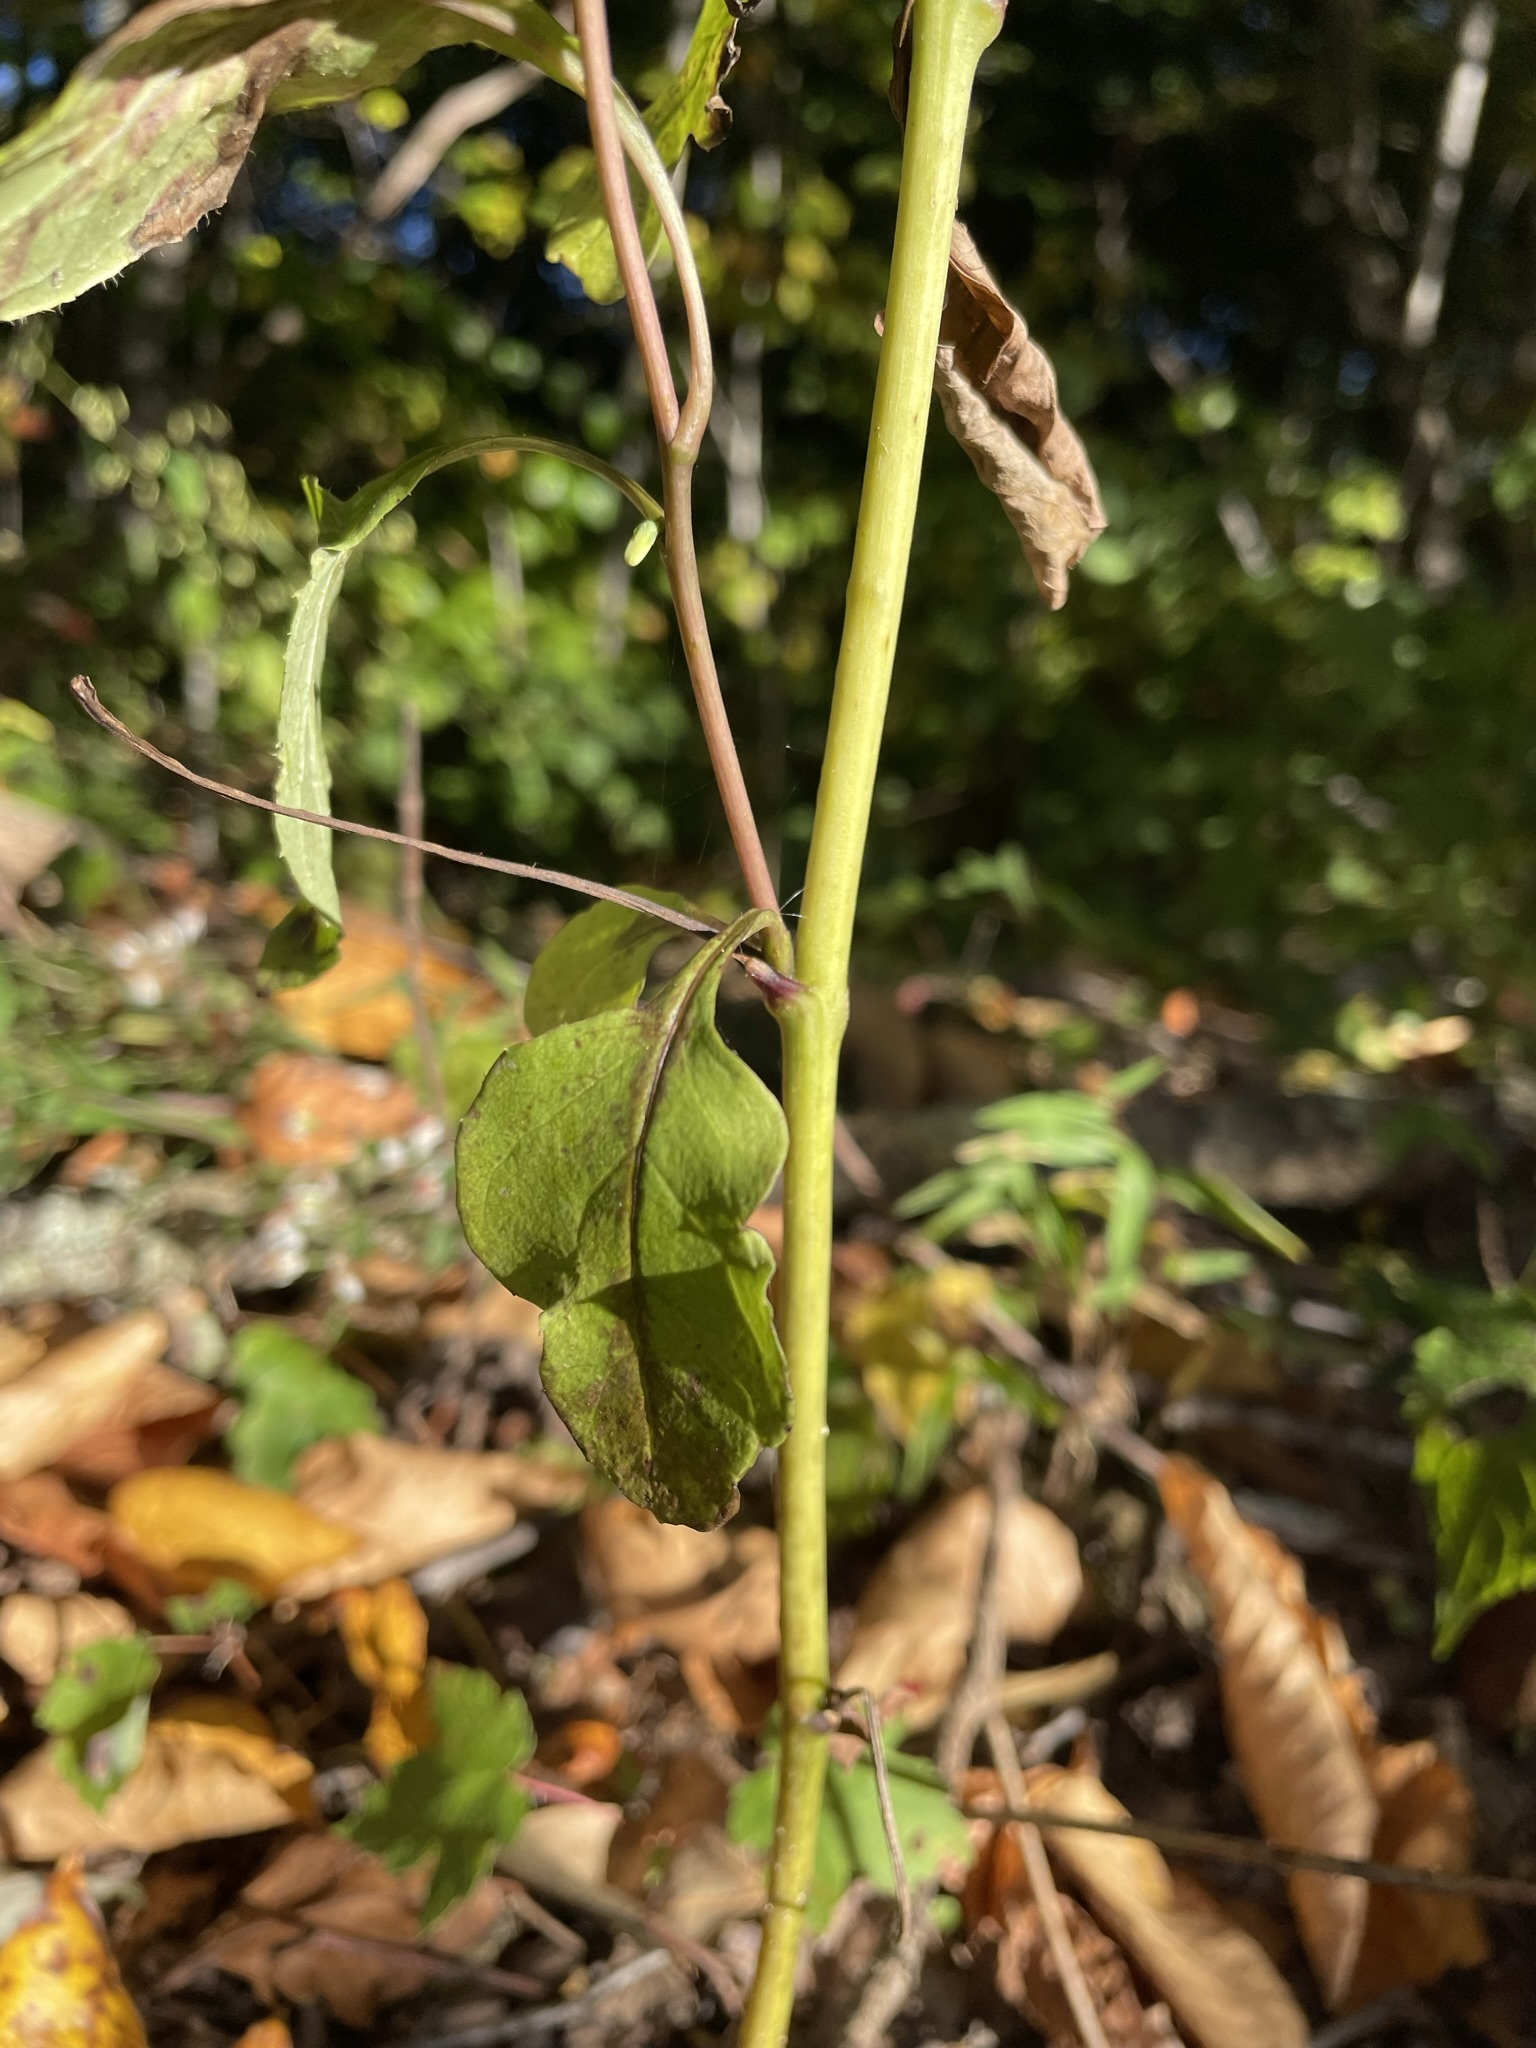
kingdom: Plantae
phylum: Tracheophyta
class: Magnoliopsida
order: Asterales
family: Asteraceae
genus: Nabalus
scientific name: Nabalus altissima
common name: Tall rattlesnakeroot
